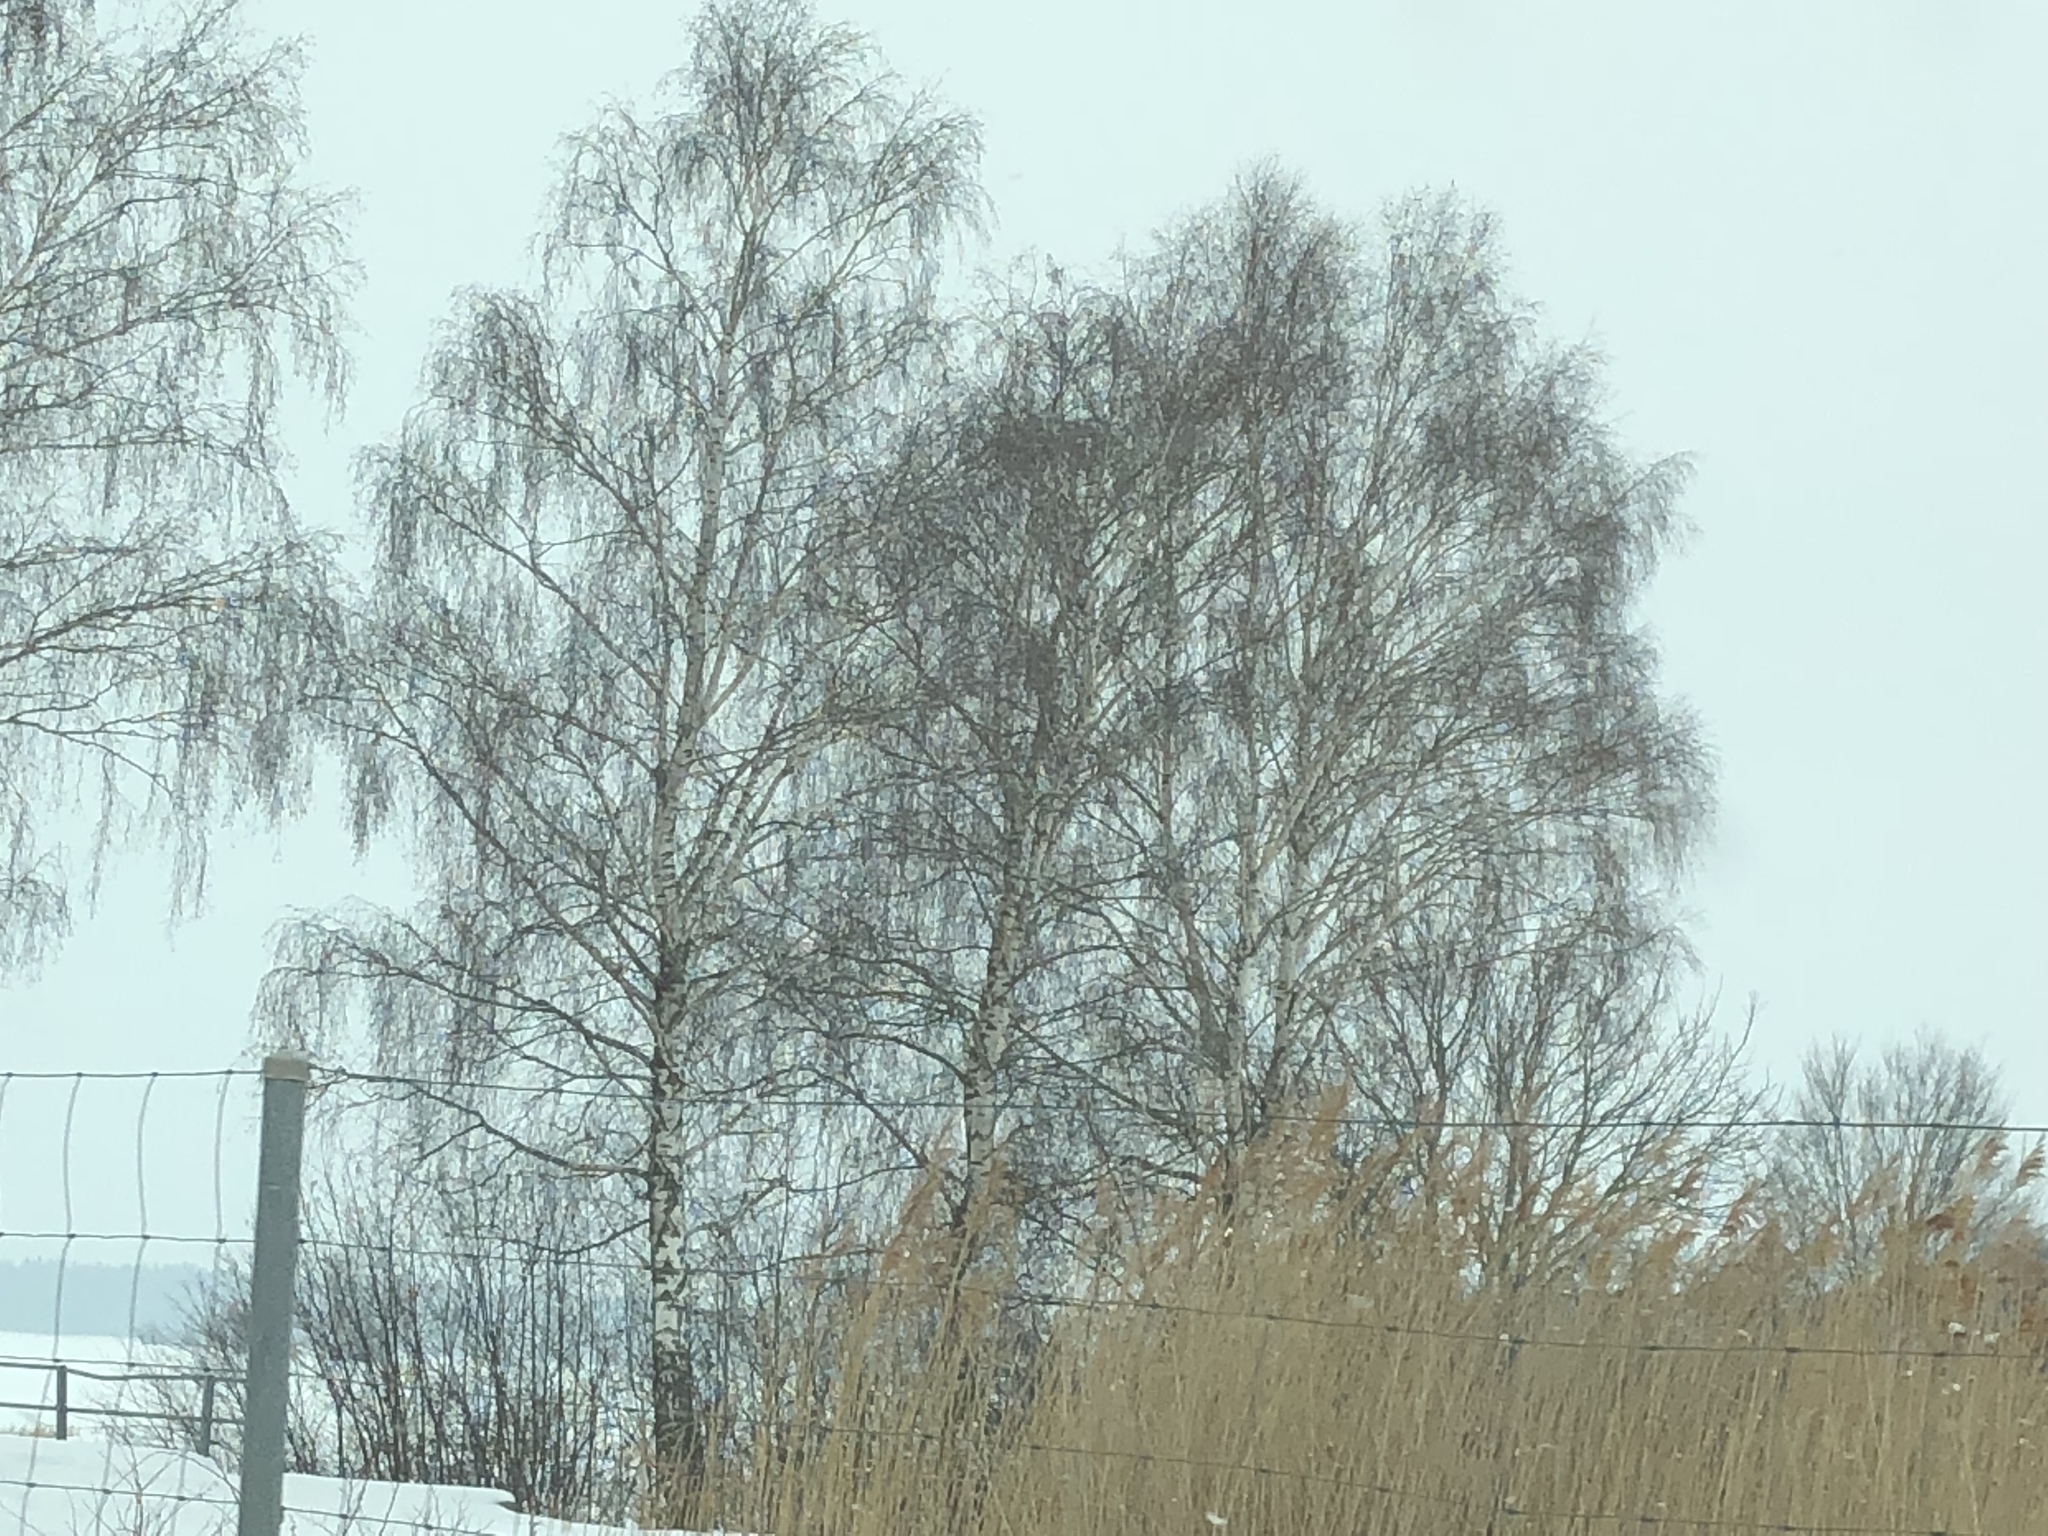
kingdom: Plantae
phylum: Tracheophyta
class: Magnoliopsida
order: Fagales
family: Betulaceae
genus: Betula
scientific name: Betula pendula
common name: Silver birch
